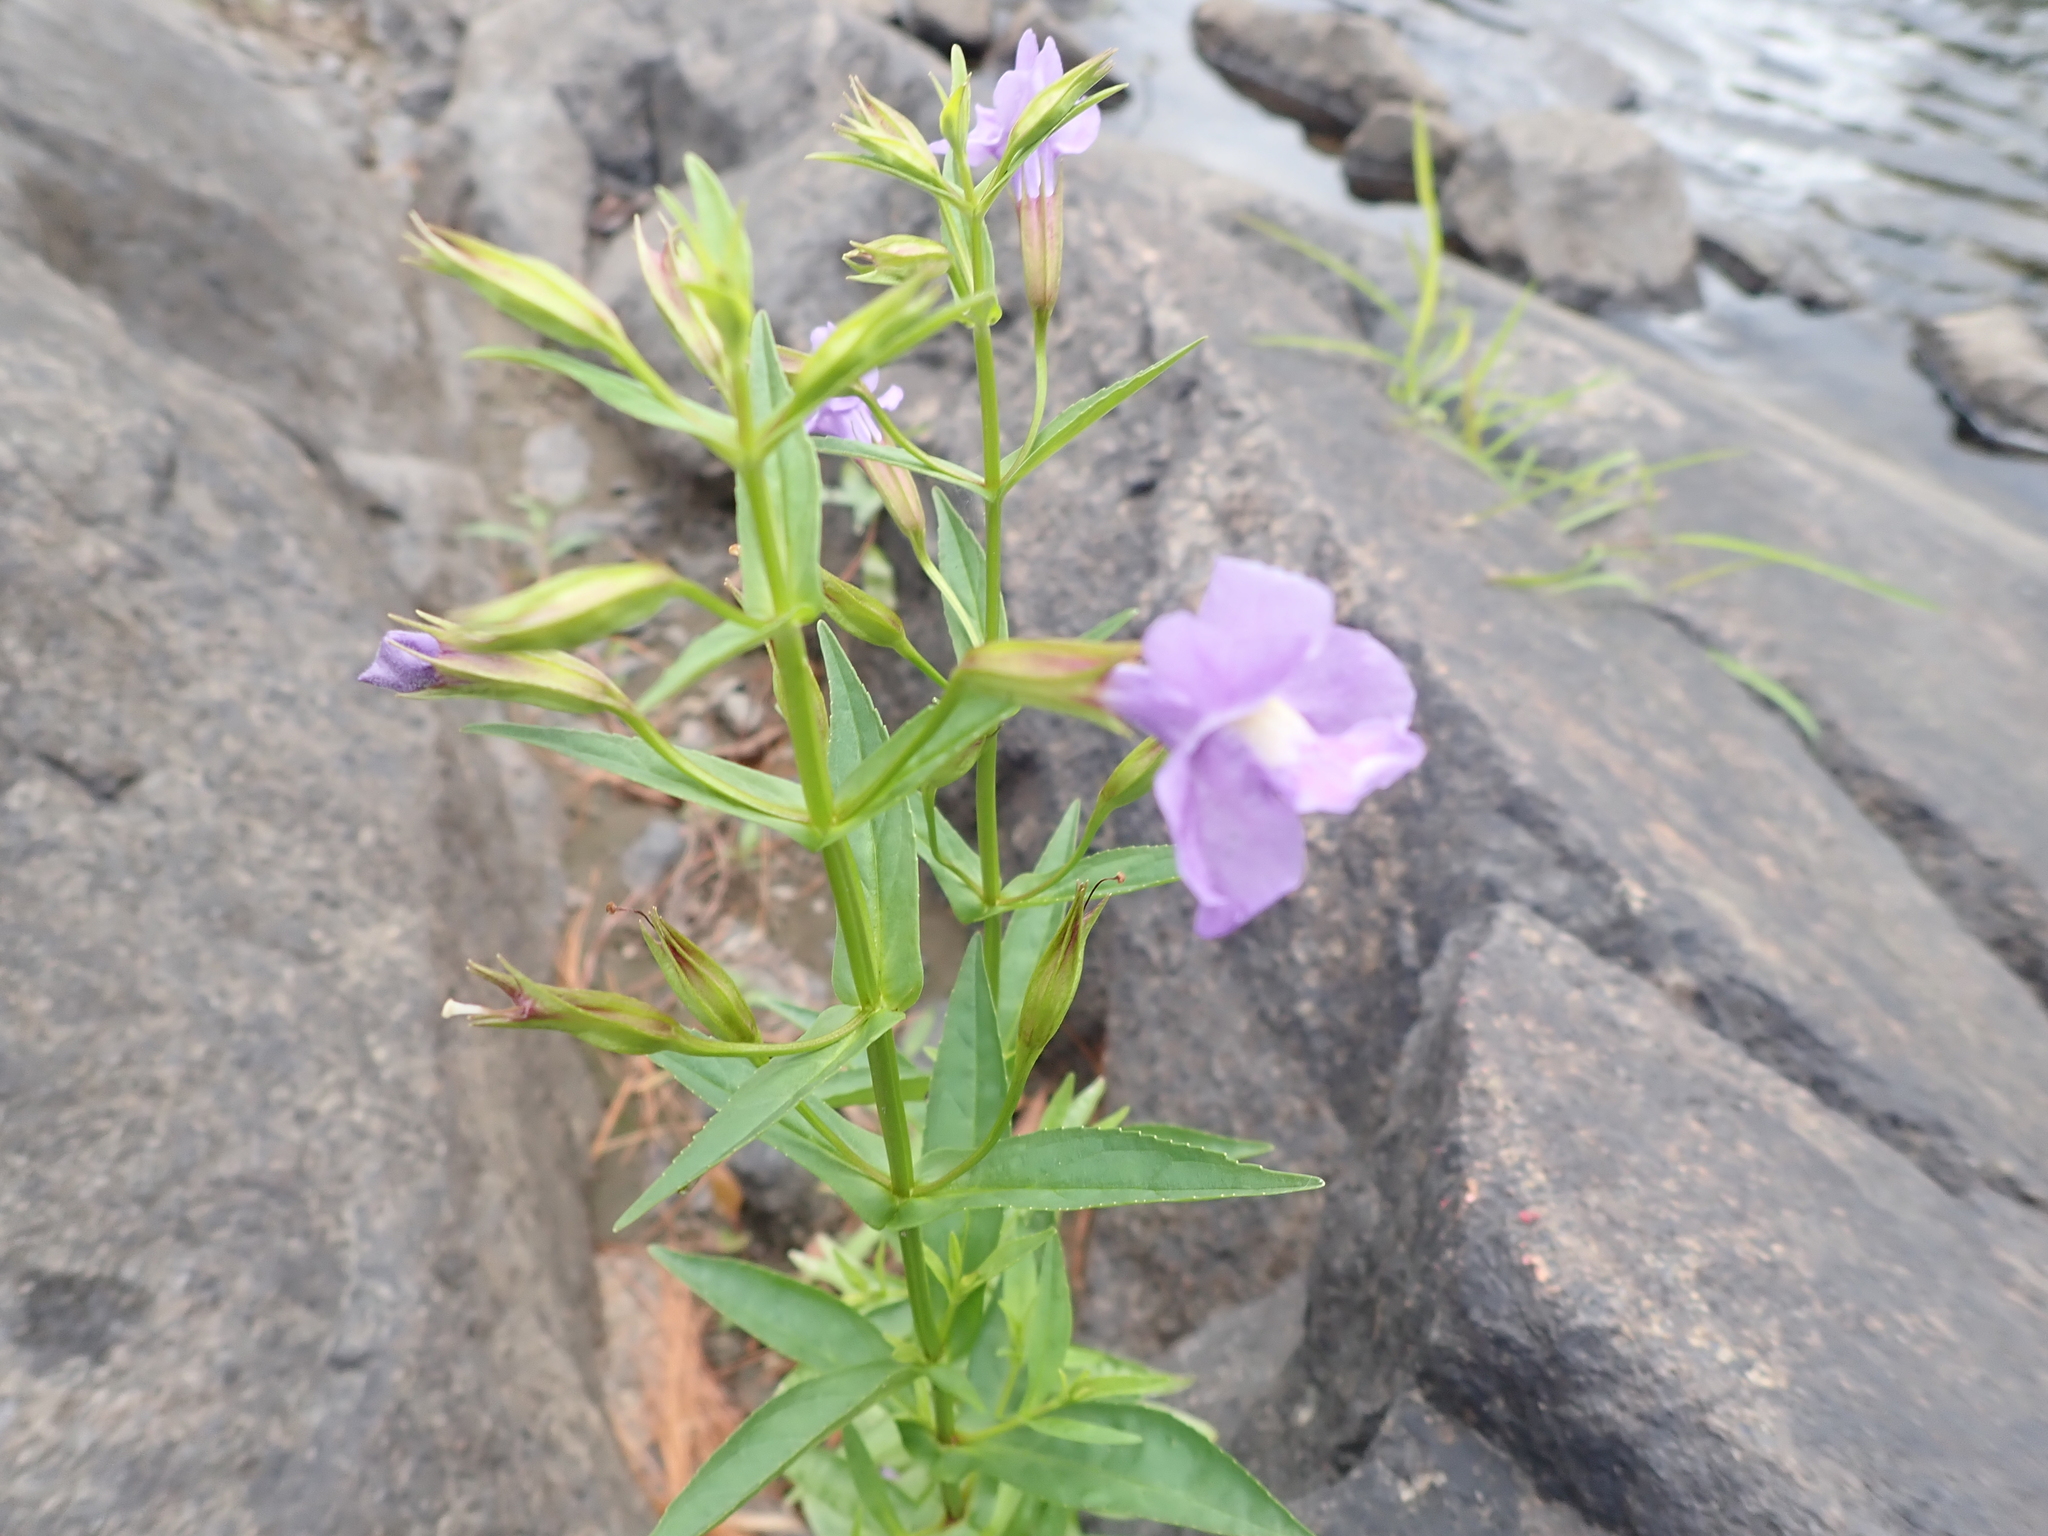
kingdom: Plantae
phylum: Tracheophyta
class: Magnoliopsida
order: Lamiales
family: Phrymaceae
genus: Mimulus
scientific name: Mimulus ringens
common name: Allegheny monkeyflower
